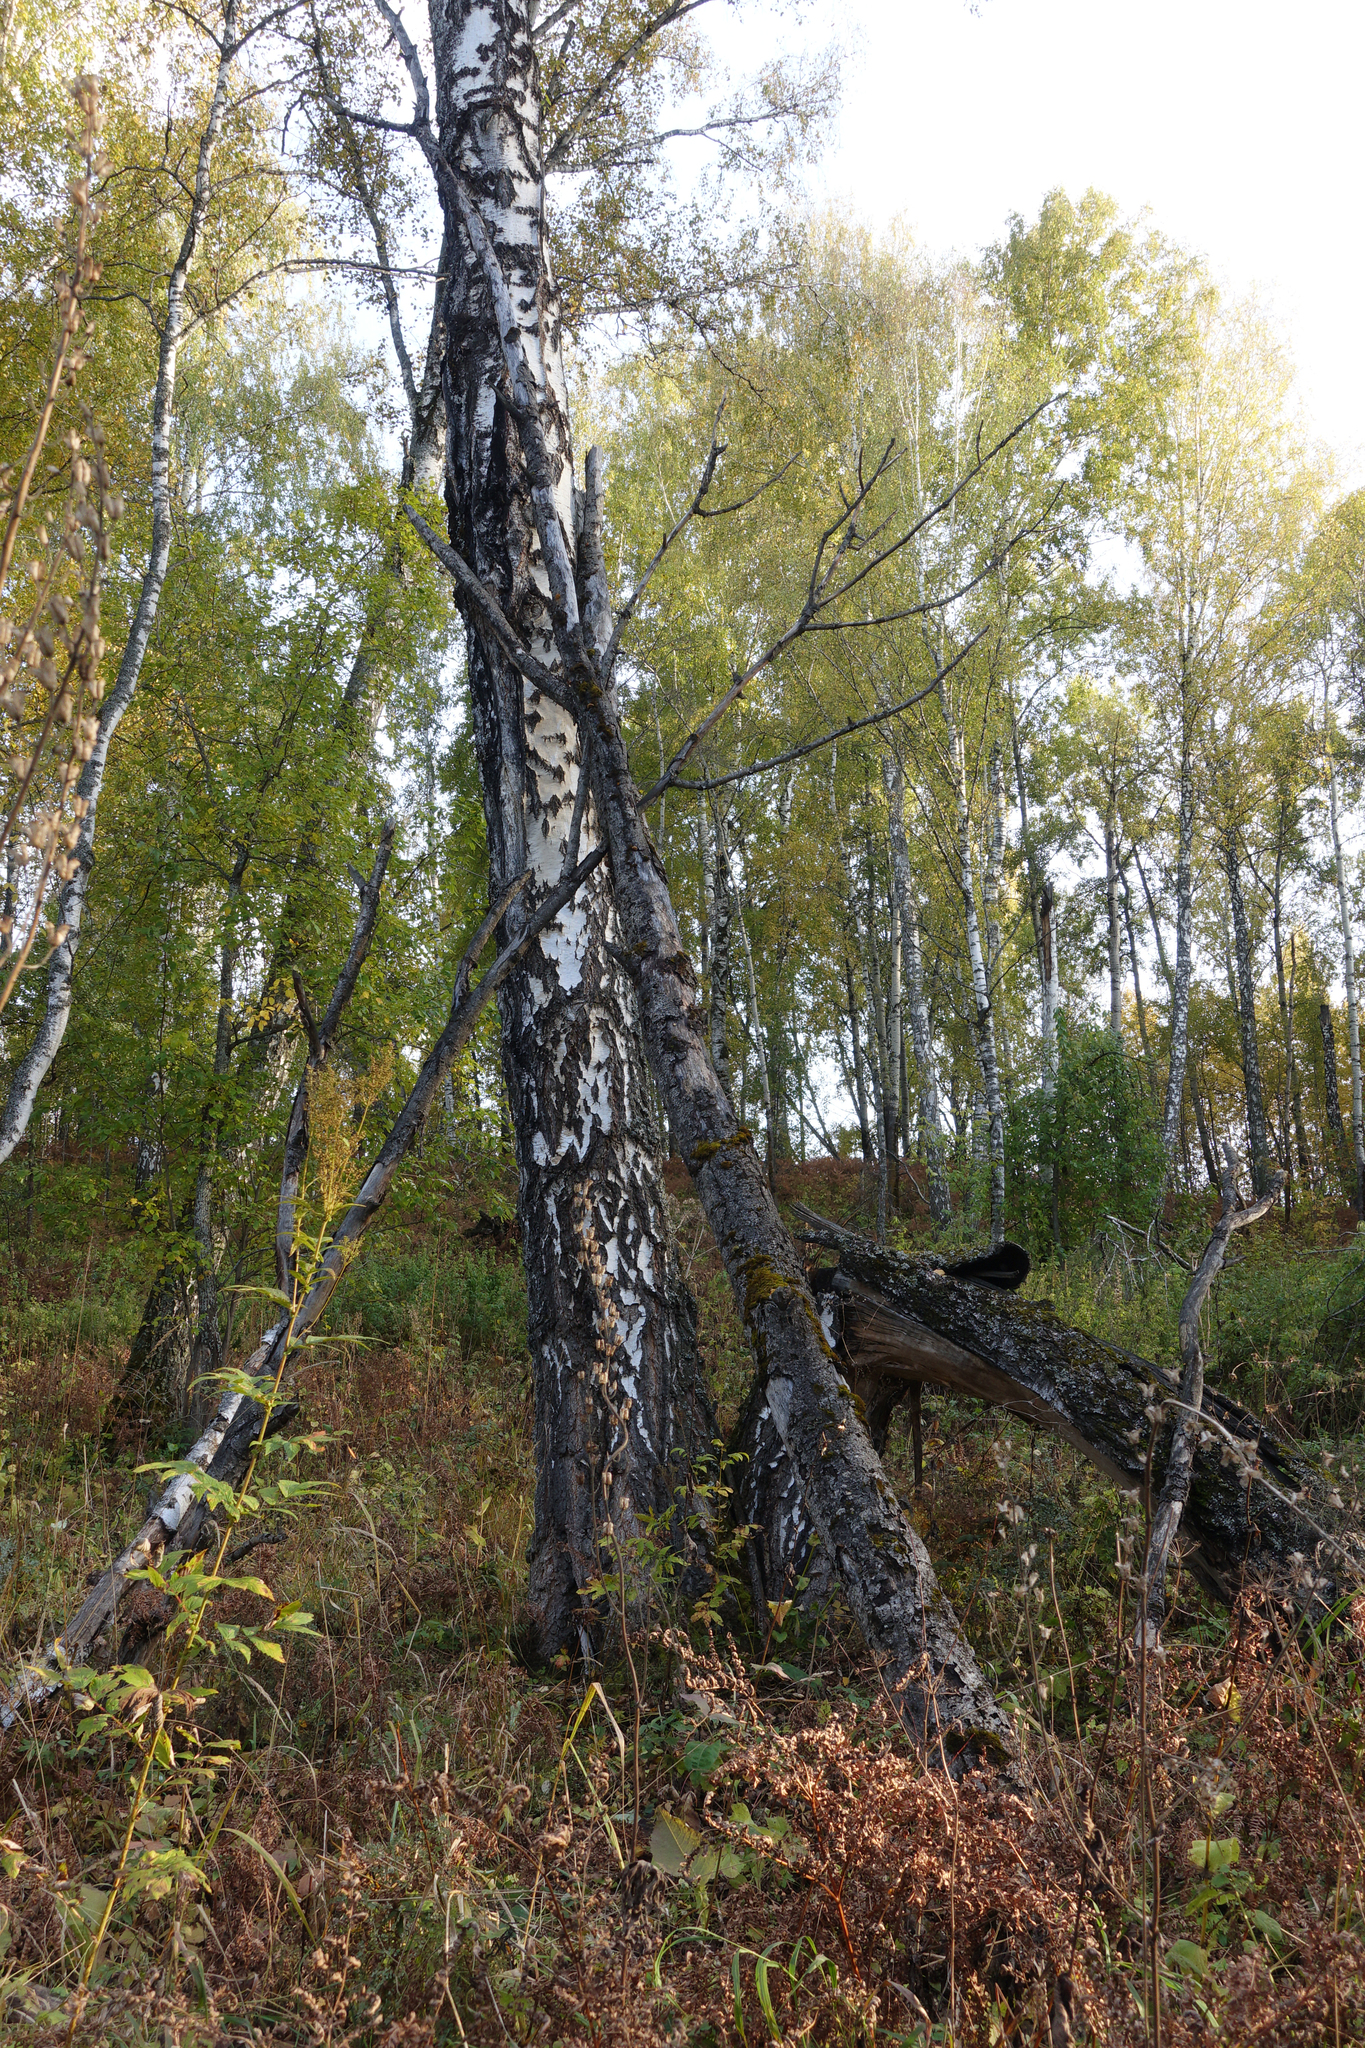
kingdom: Plantae
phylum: Tracheophyta
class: Magnoliopsida
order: Fagales
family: Betulaceae
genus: Betula
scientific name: Betula pendula
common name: Silver birch
